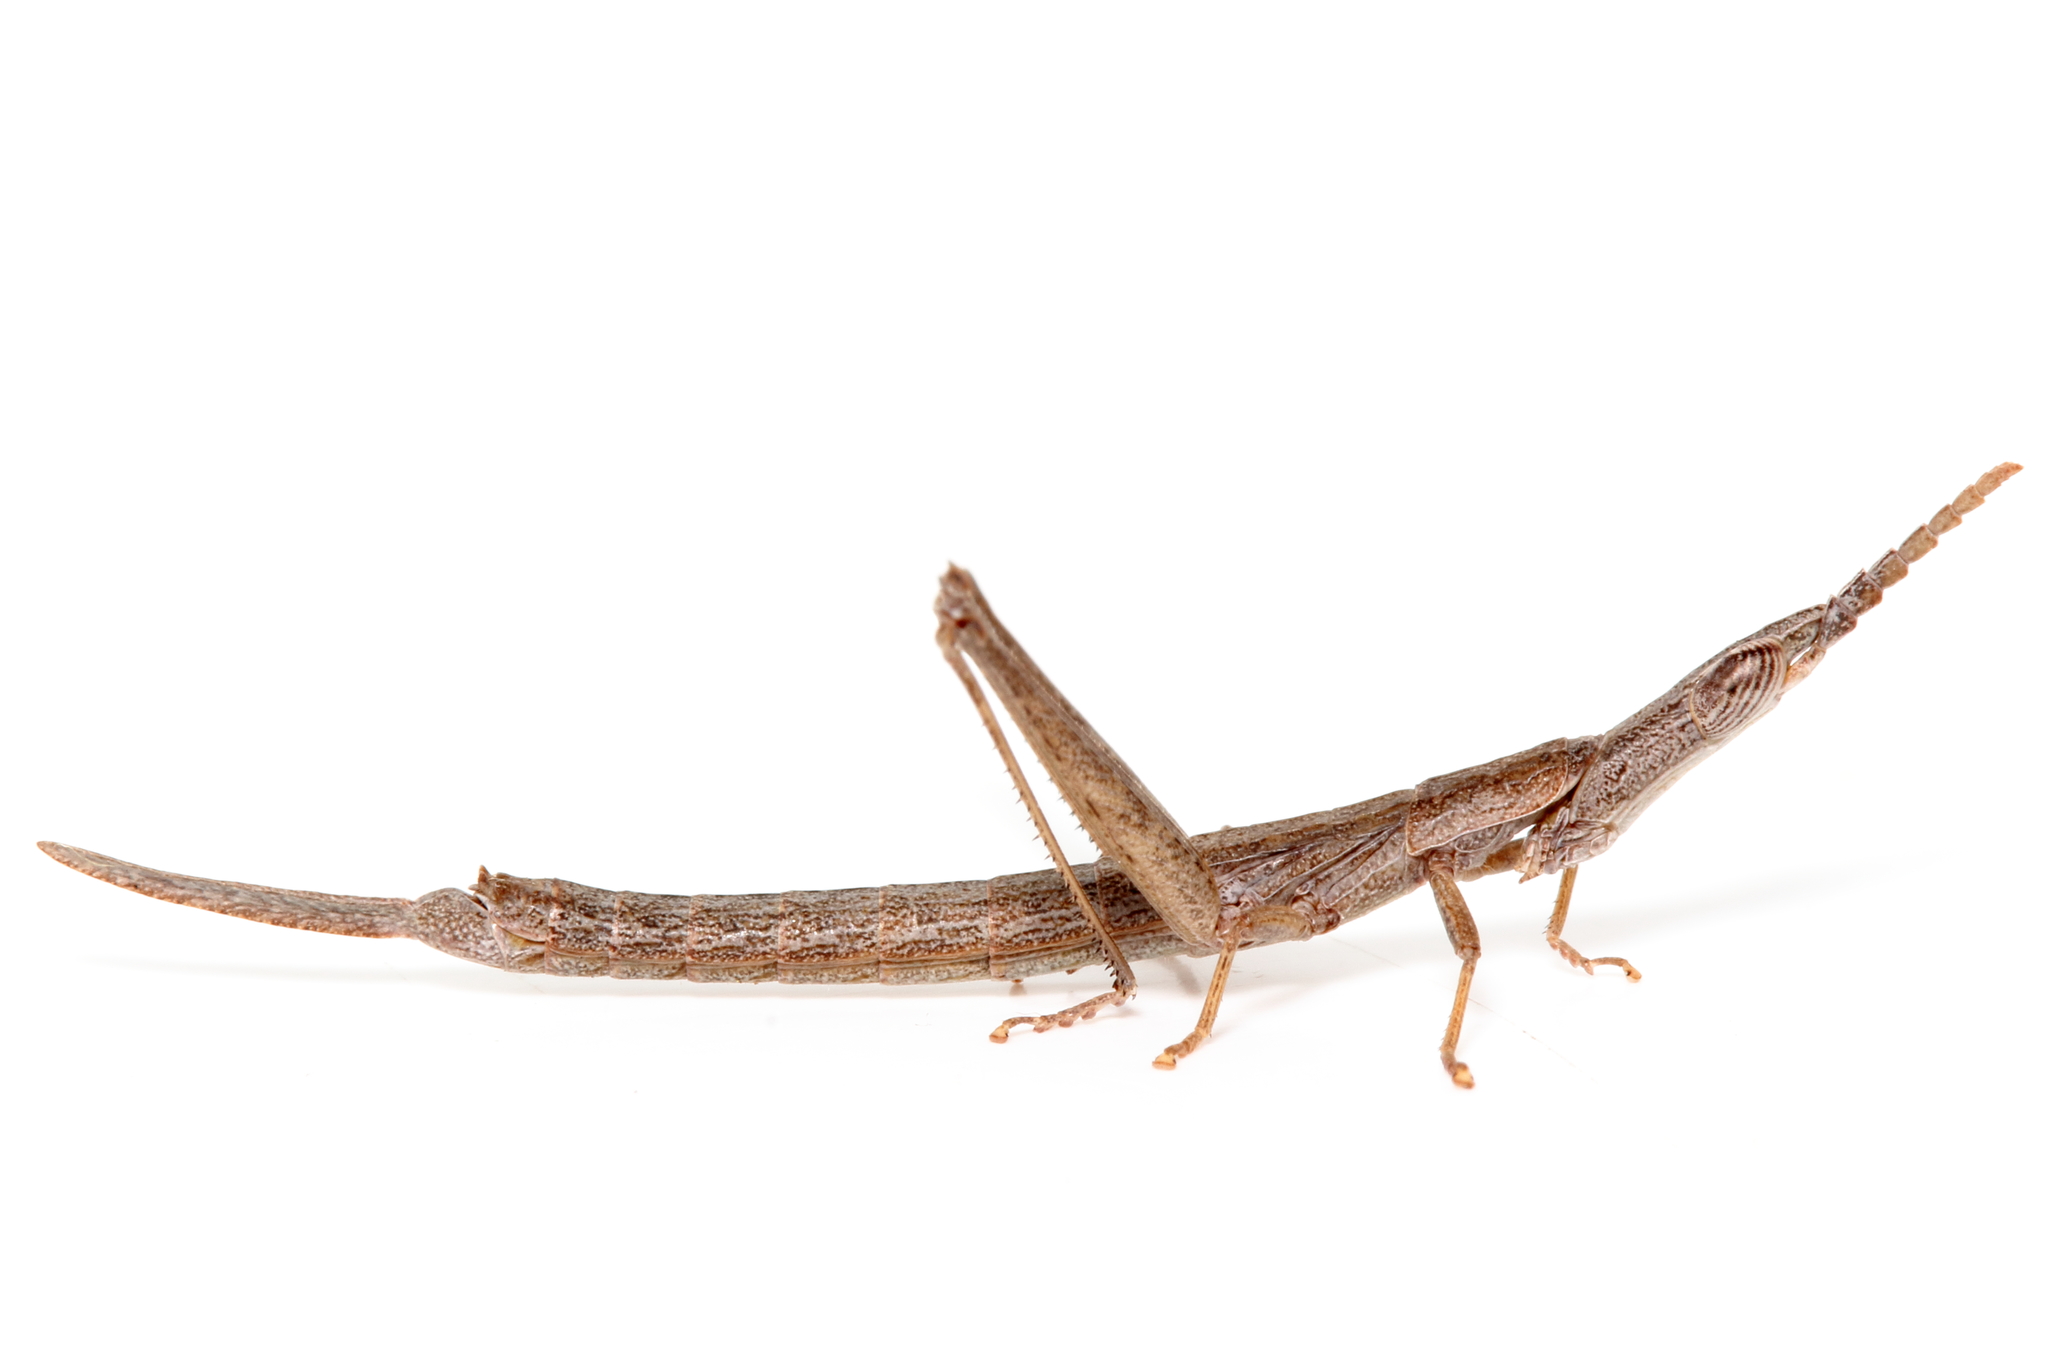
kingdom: Animalia
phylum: Arthropoda
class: Insecta
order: Orthoptera
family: Morabidae
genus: Vandiemenella
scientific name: Vandiemenella pichirichi
